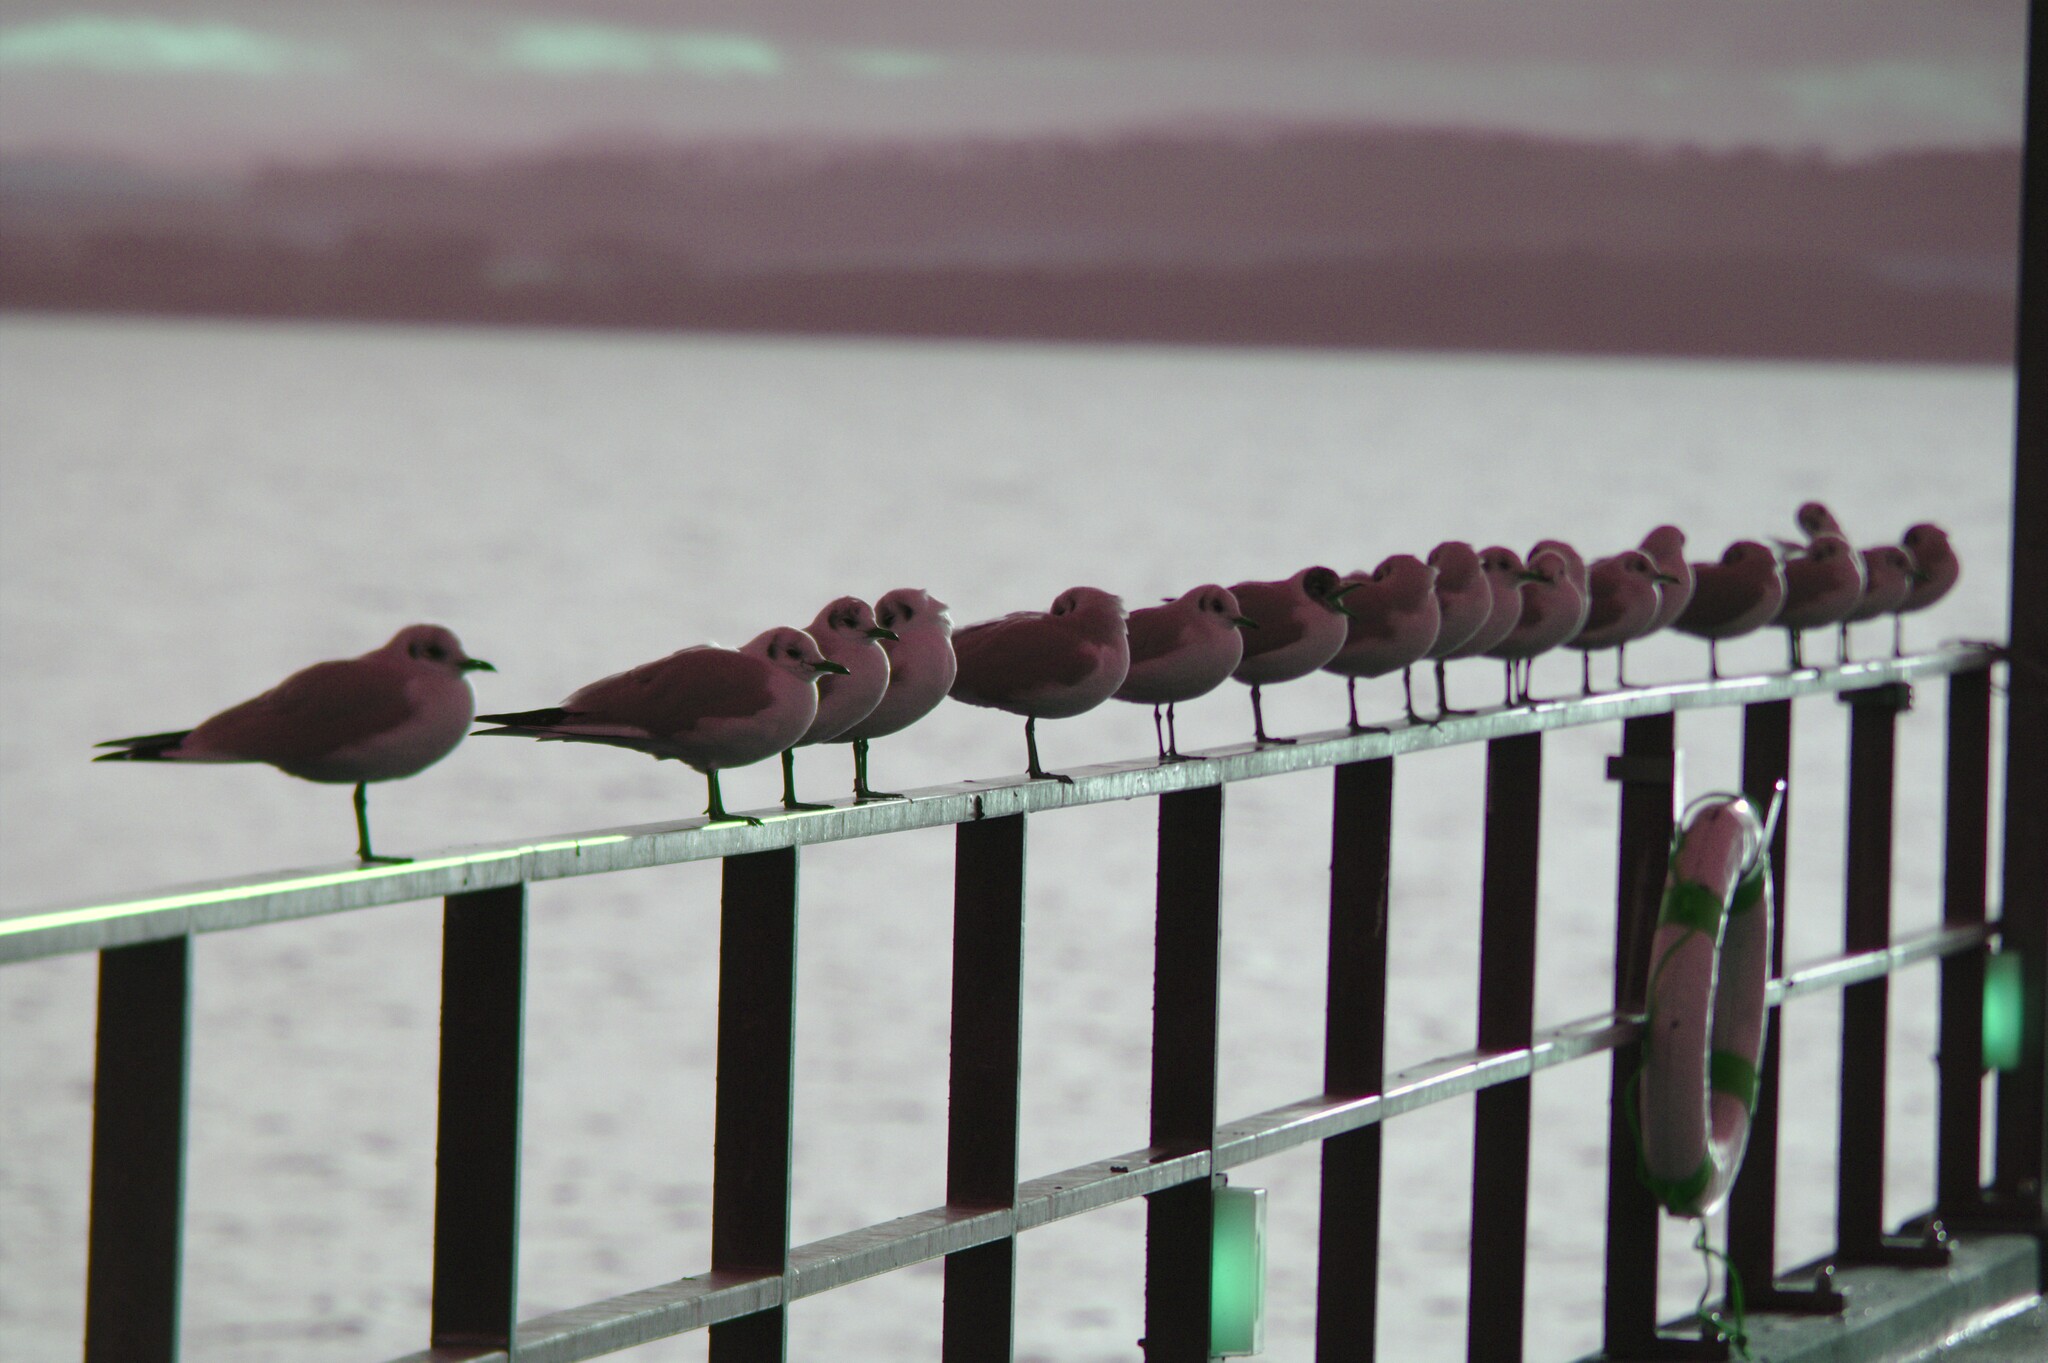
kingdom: Animalia
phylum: Chordata
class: Aves
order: Charadriiformes
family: Laridae
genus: Chroicocephalus
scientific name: Chroicocephalus ridibundus
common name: Black-headed gull
